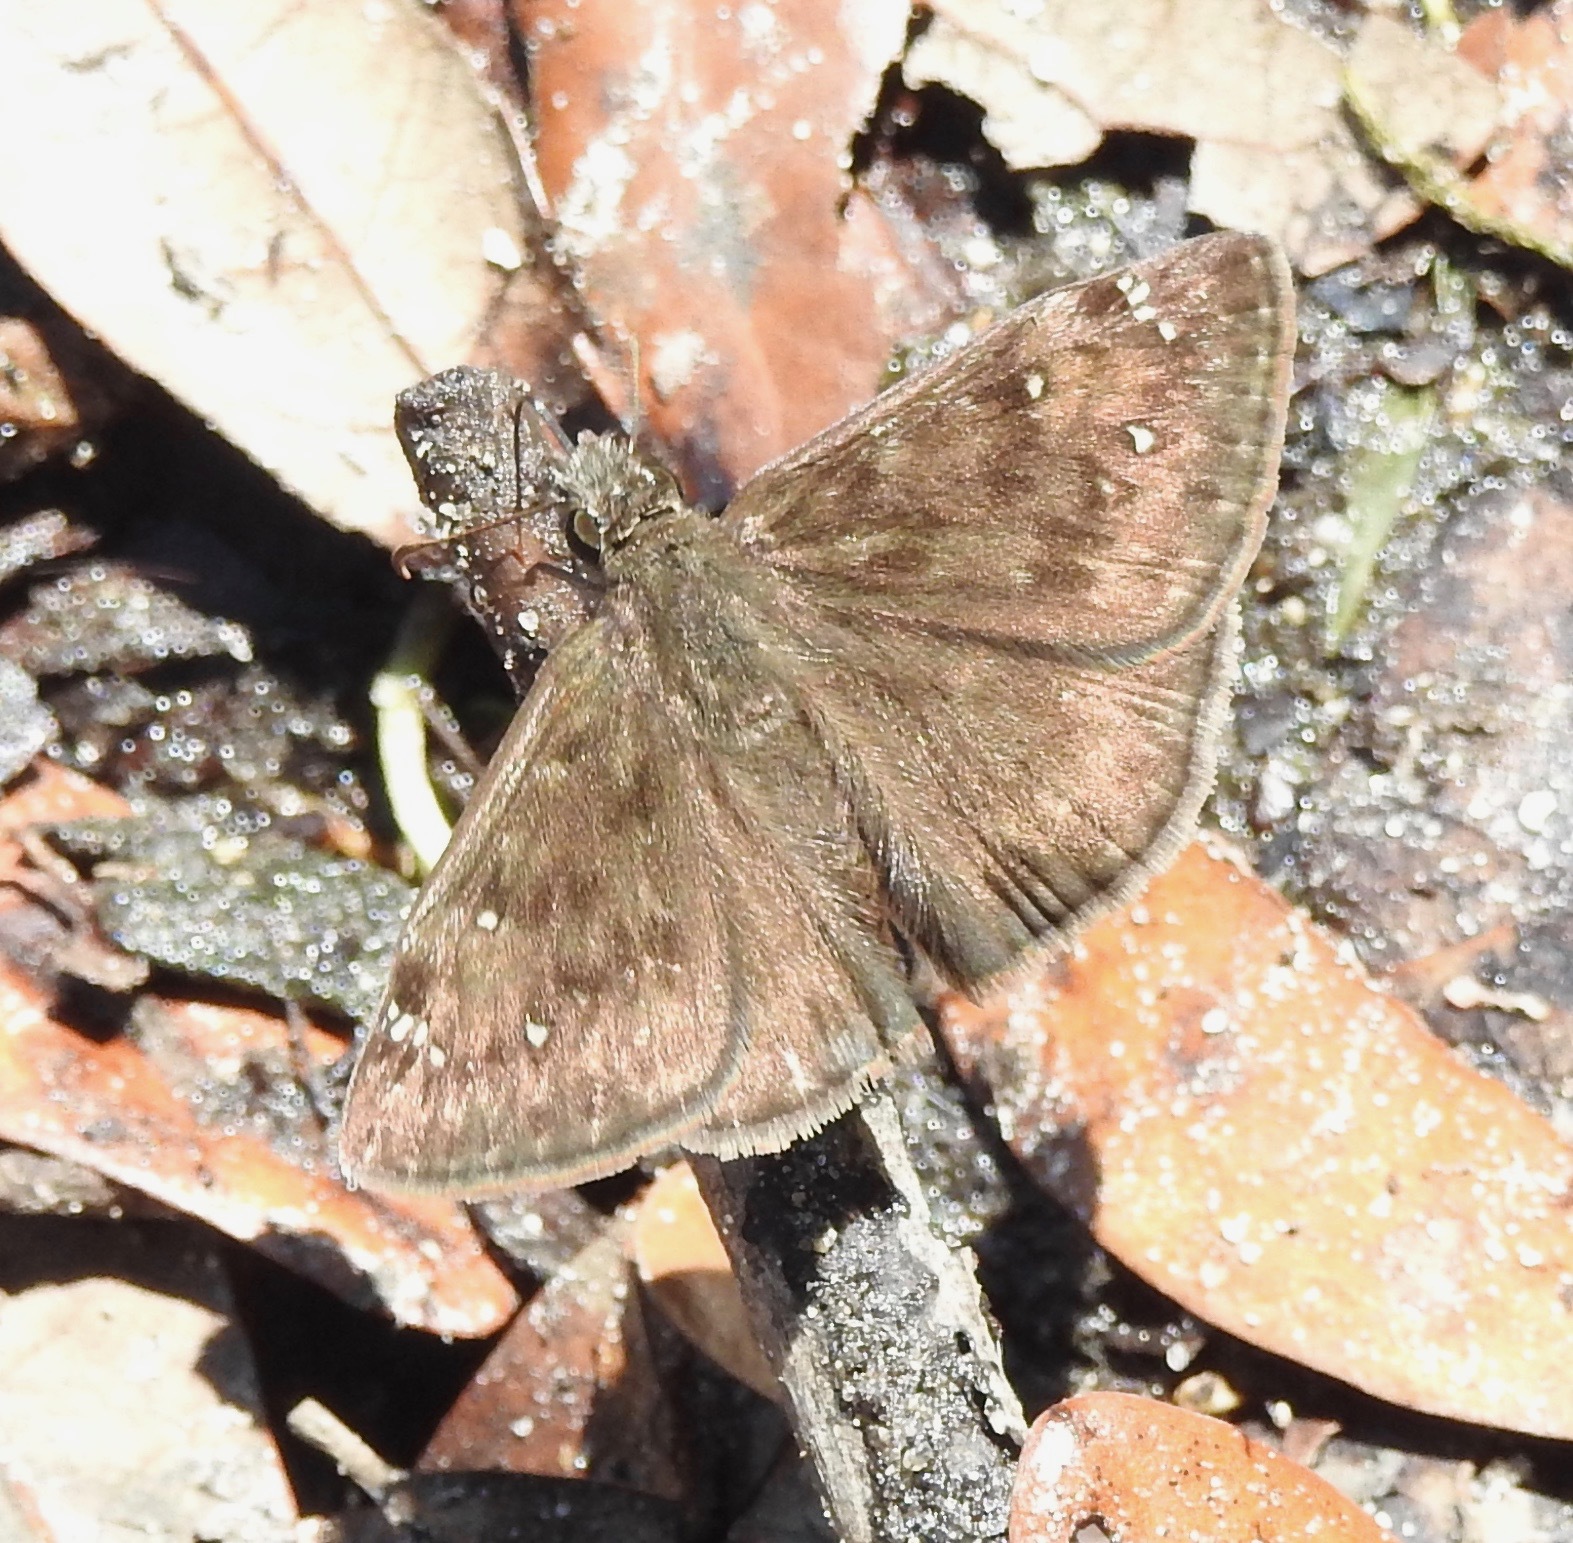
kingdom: Animalia
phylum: Arthropoda
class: Insecta
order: Lepidoptera
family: Hesperiidae
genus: Erynnis
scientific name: Erynnis horatius
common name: Horace's duskywing
